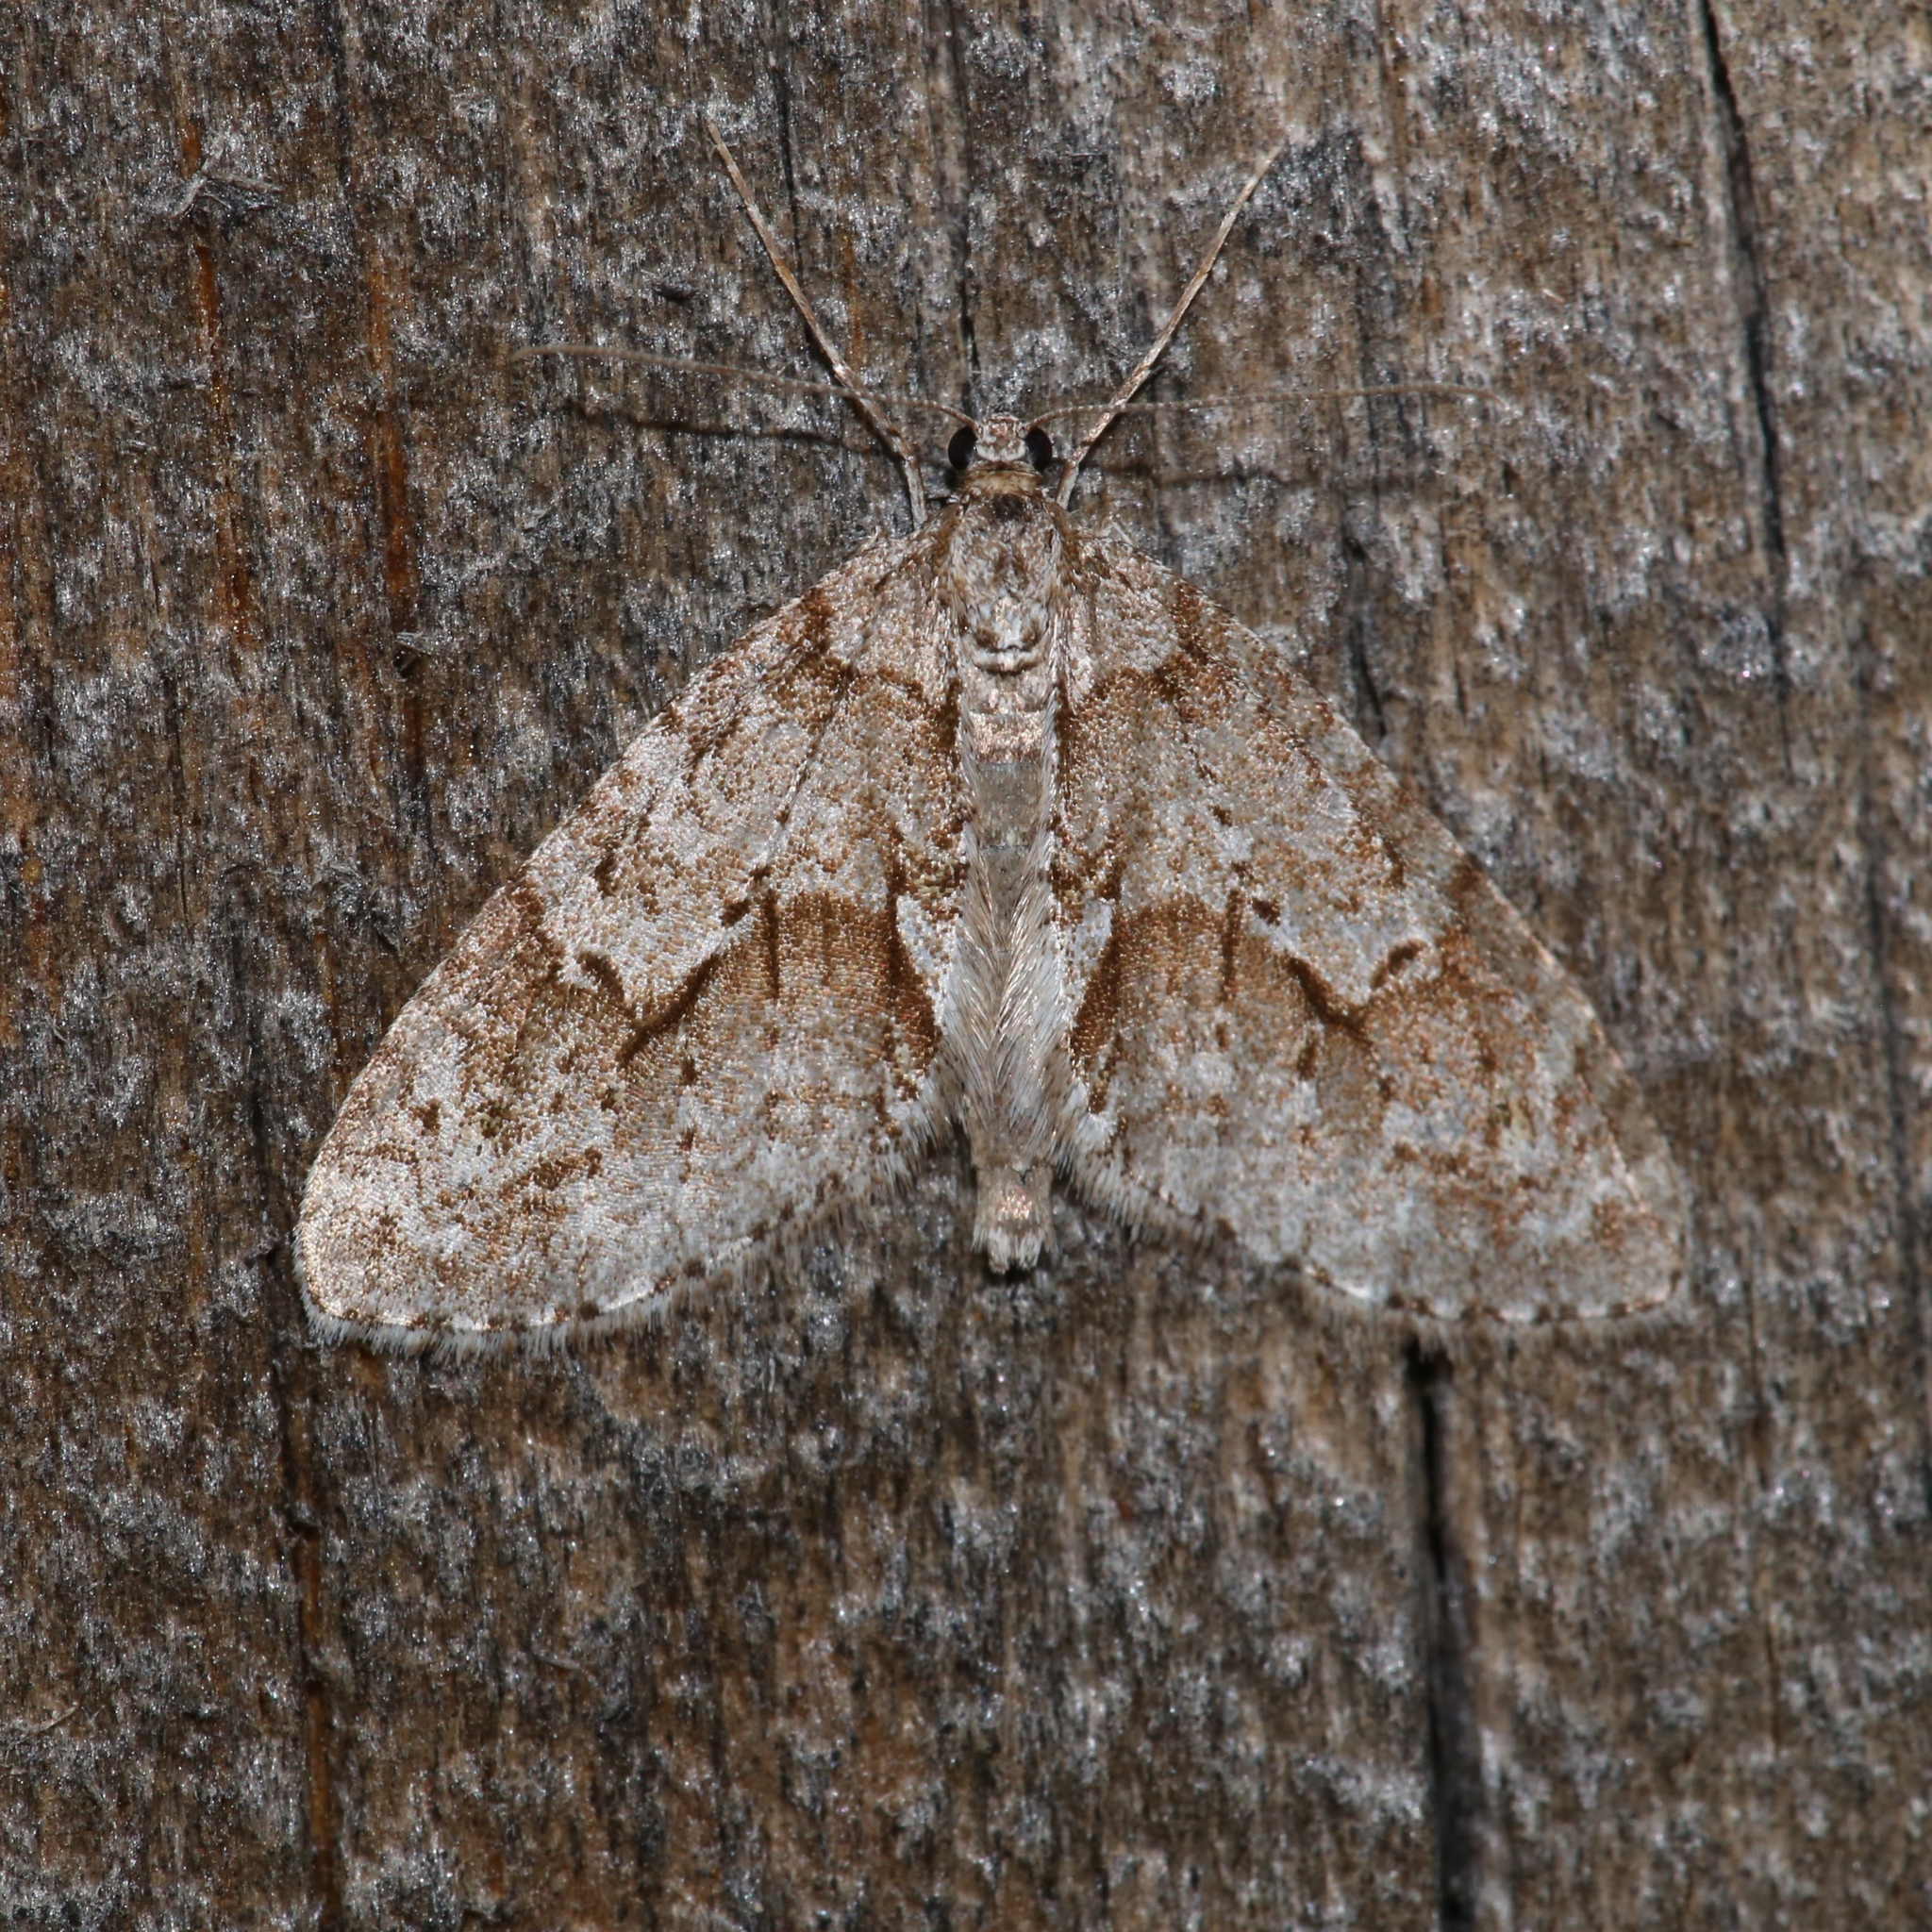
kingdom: Animalia
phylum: Arthropoda
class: Insecta
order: Lepidoptera
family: Geometridae
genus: Cladara
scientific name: Cladara limitaria
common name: Mottled gray carpet
